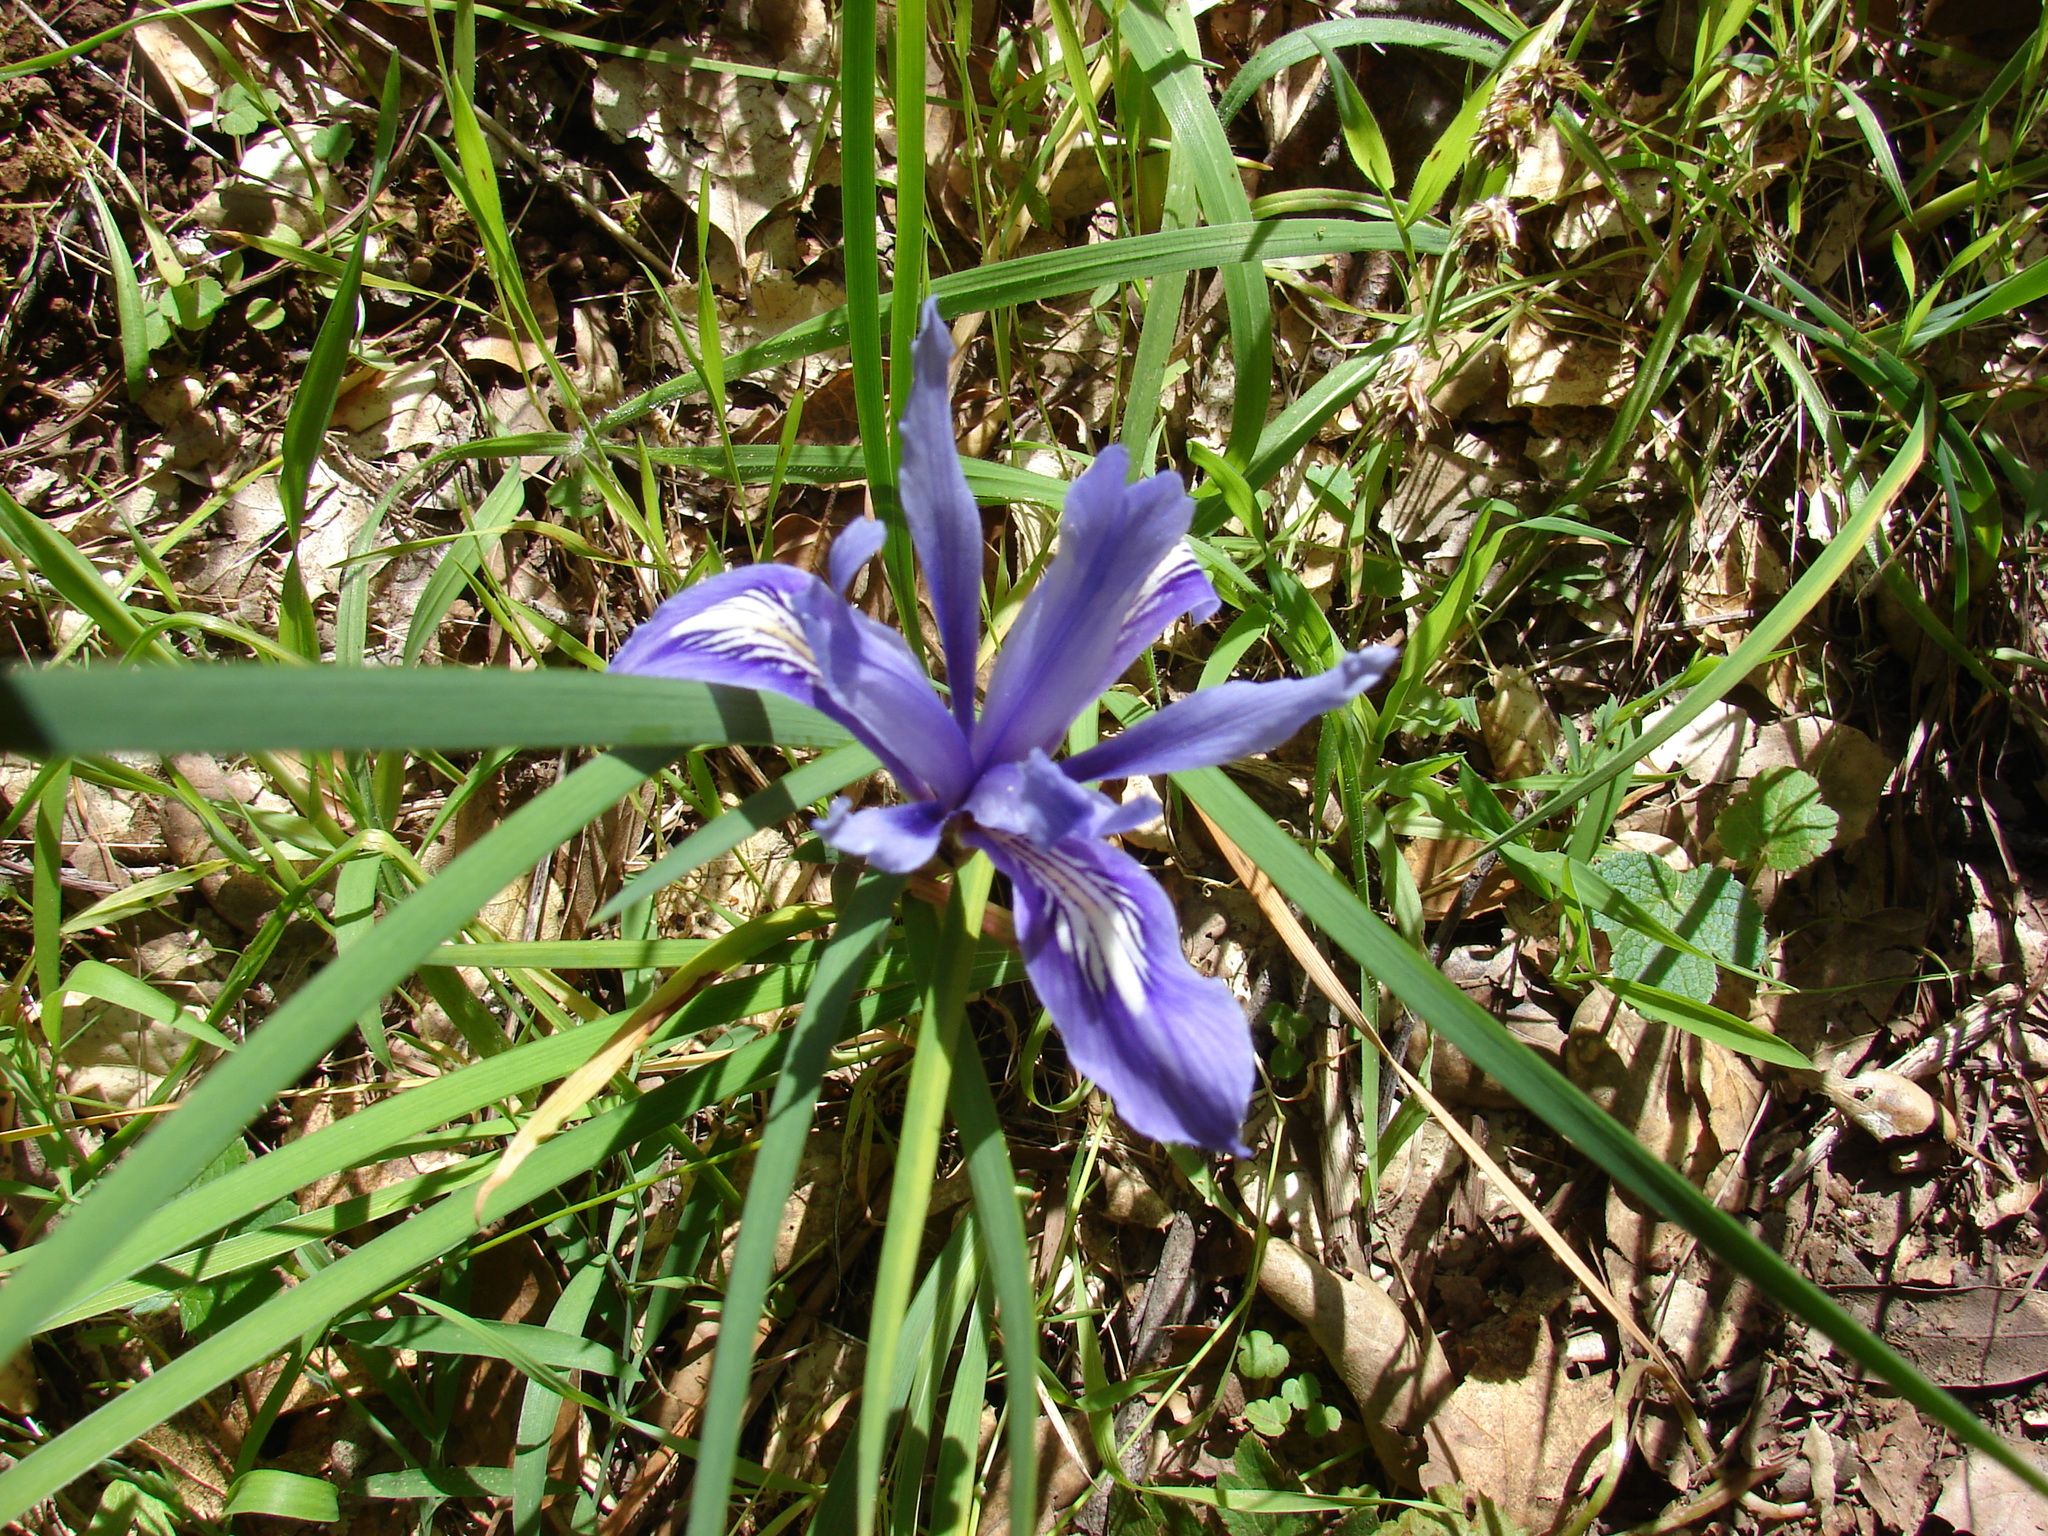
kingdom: Plantae
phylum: Tracheophyta
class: Liliopsida
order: Asparagales
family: Iridaceae
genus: Iris
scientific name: Iris macrosiphon
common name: Ground iris
